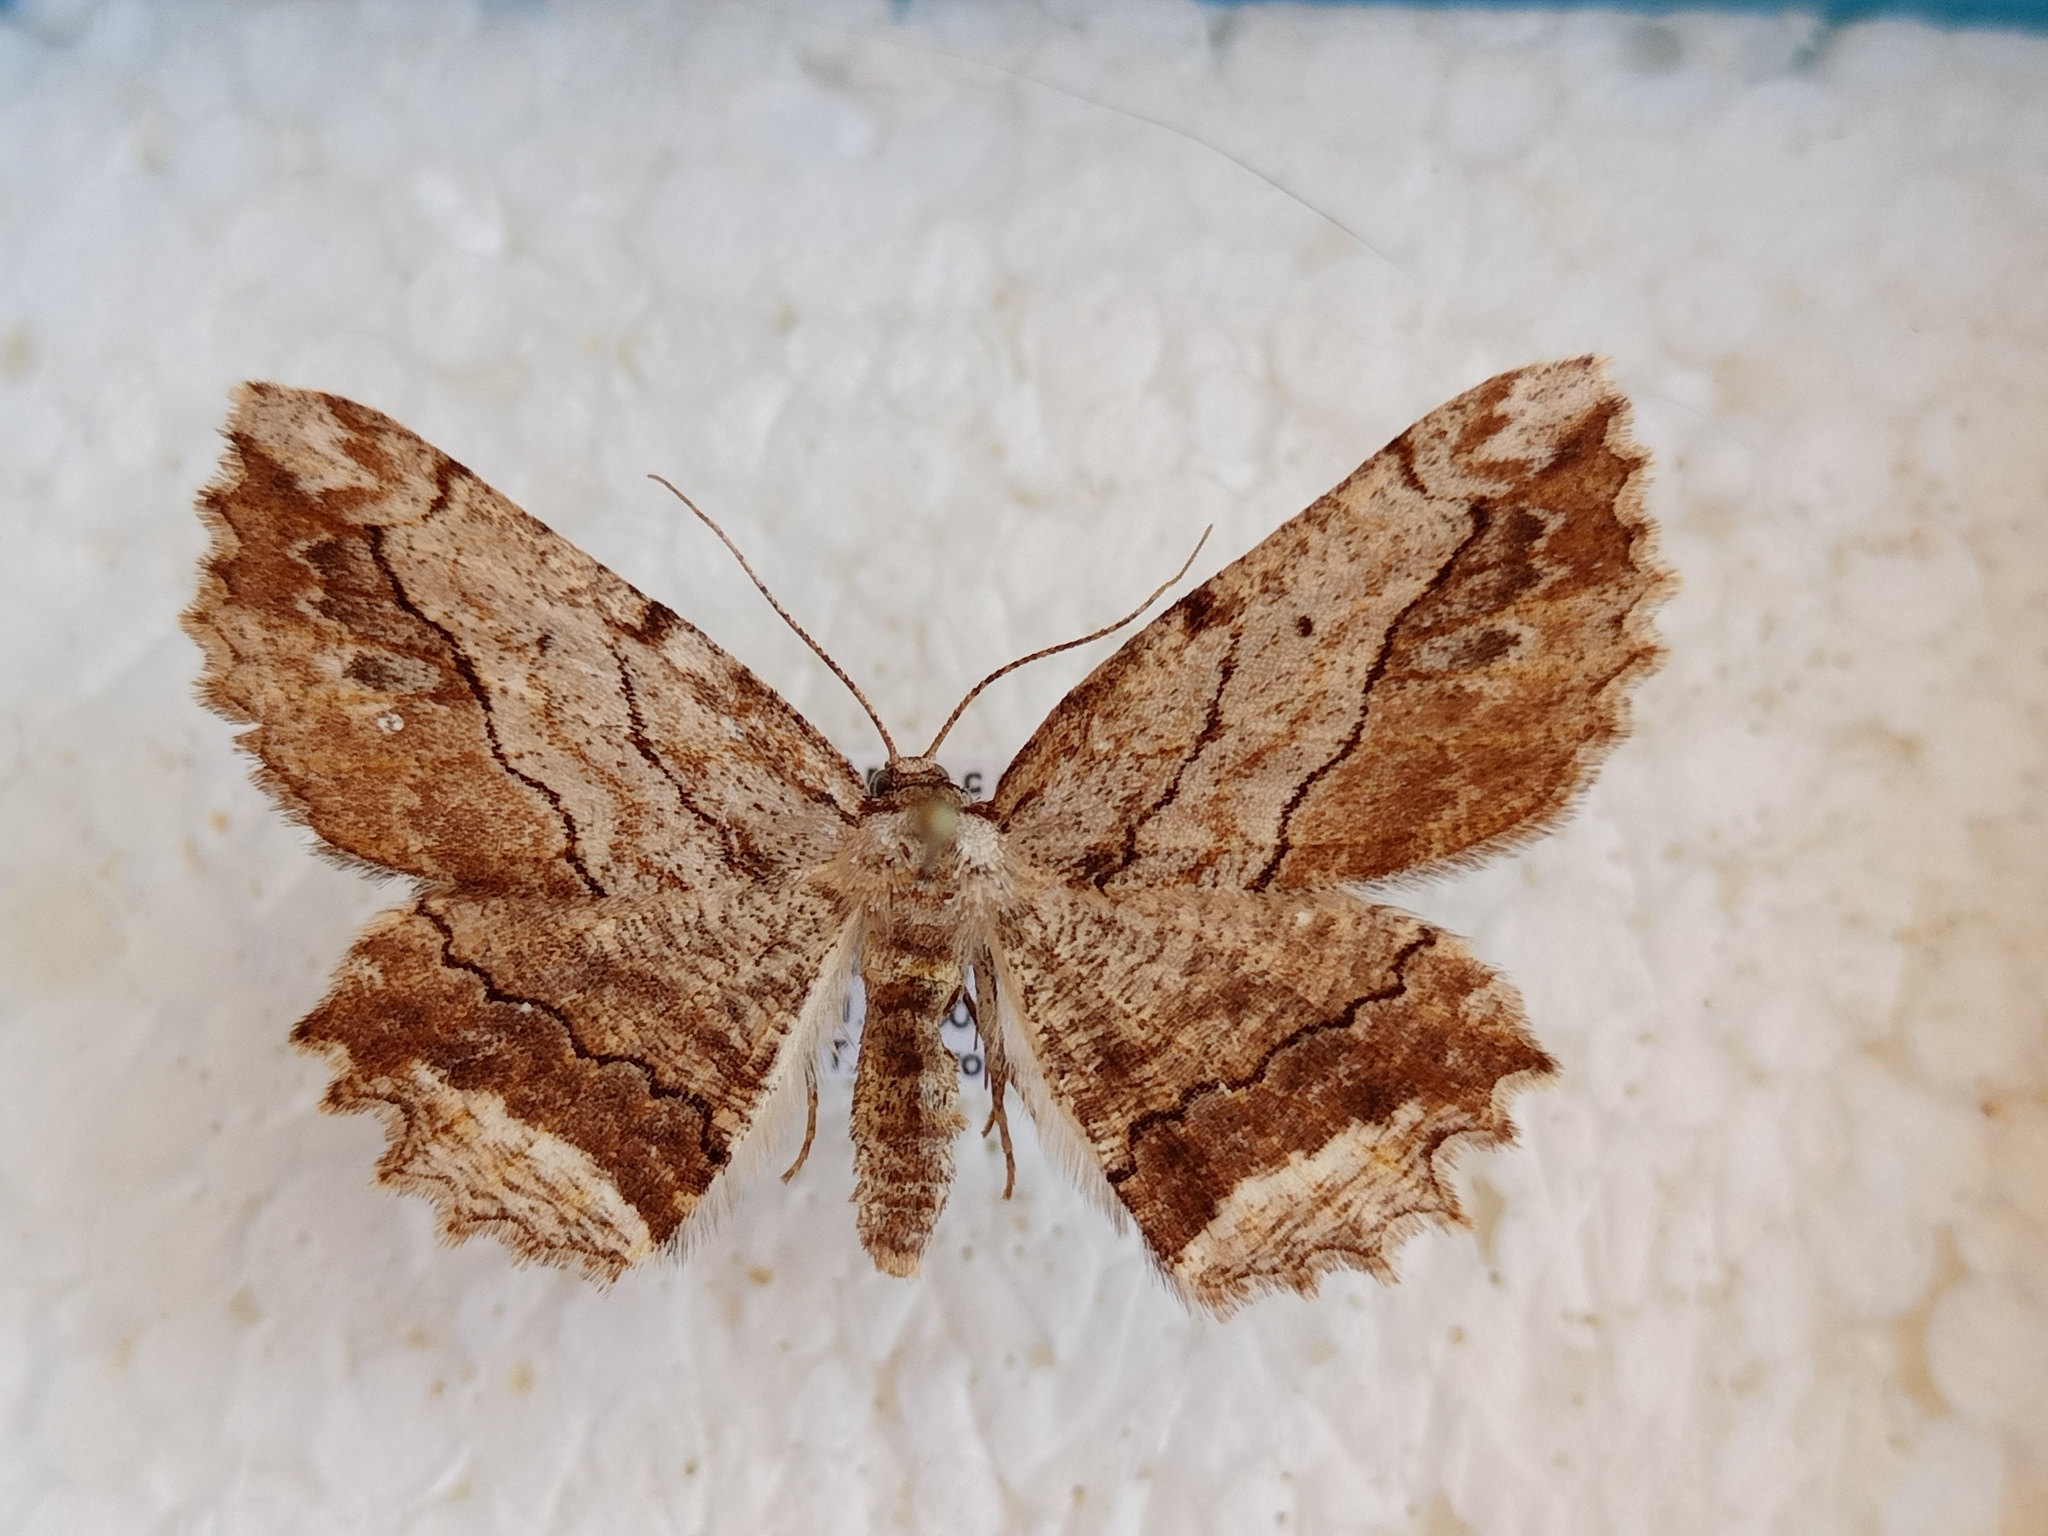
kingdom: Animalia
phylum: Arthropoda
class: Insecta
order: Lepidoptera
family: Geometridae
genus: Menophra
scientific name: Menophra abruptaria
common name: Waved umber
